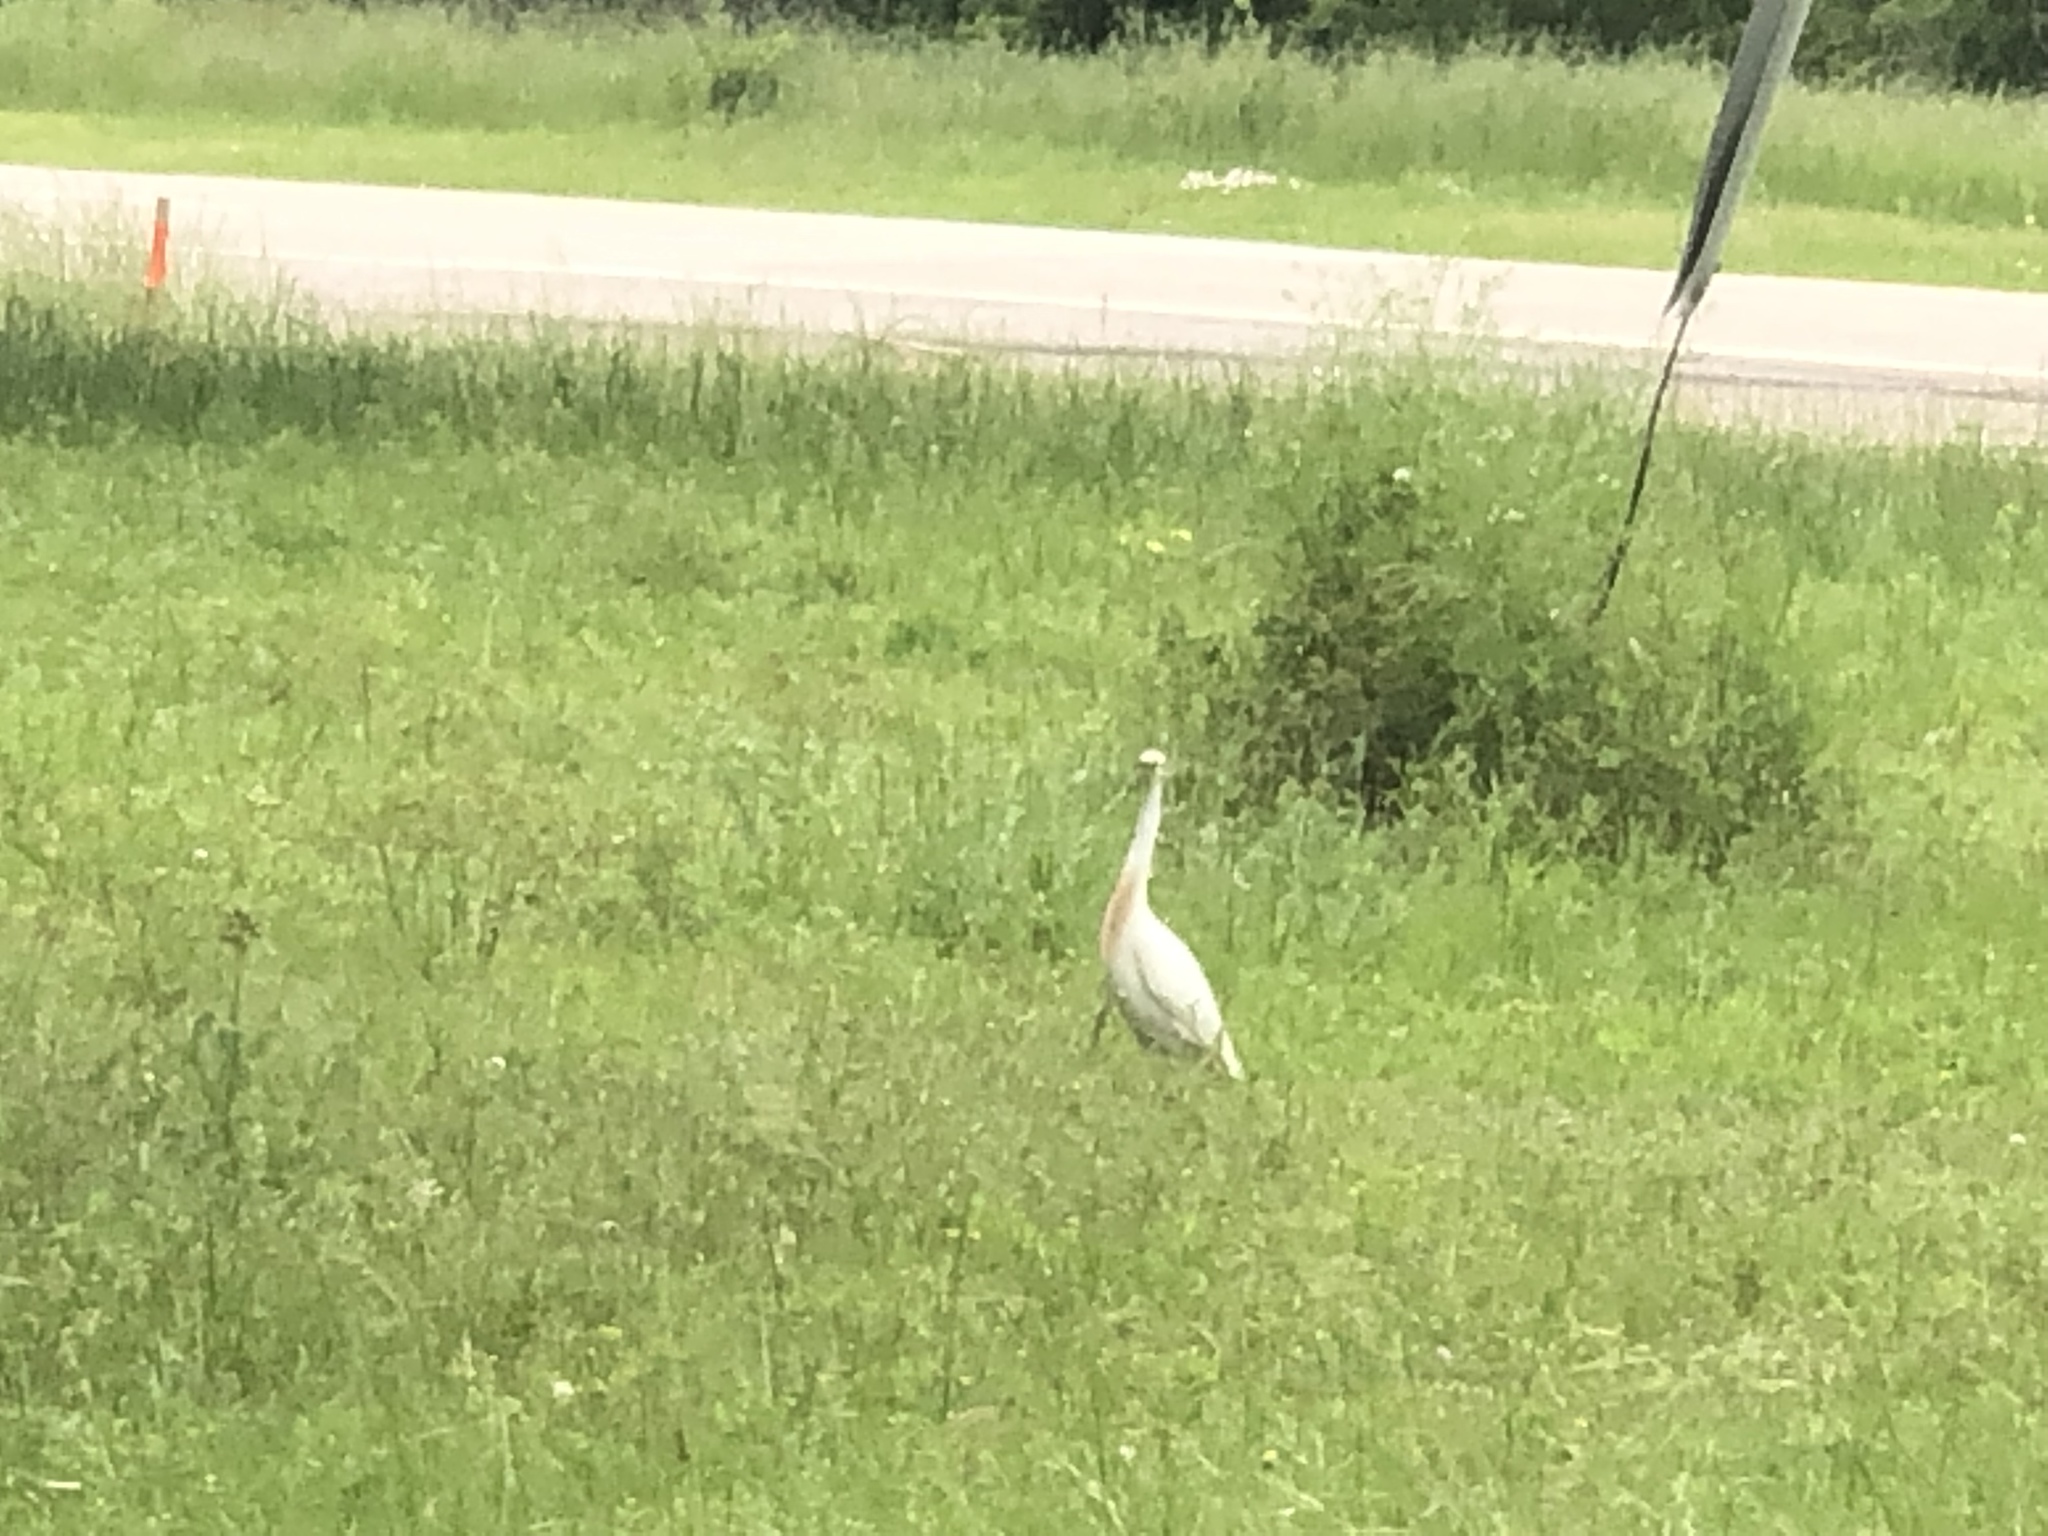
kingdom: Animalia
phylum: Chordata
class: Aves
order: Pelecaniformes
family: Ardeidae
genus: Bubulcus
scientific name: Bubulcus ibis
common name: Cattle egret
